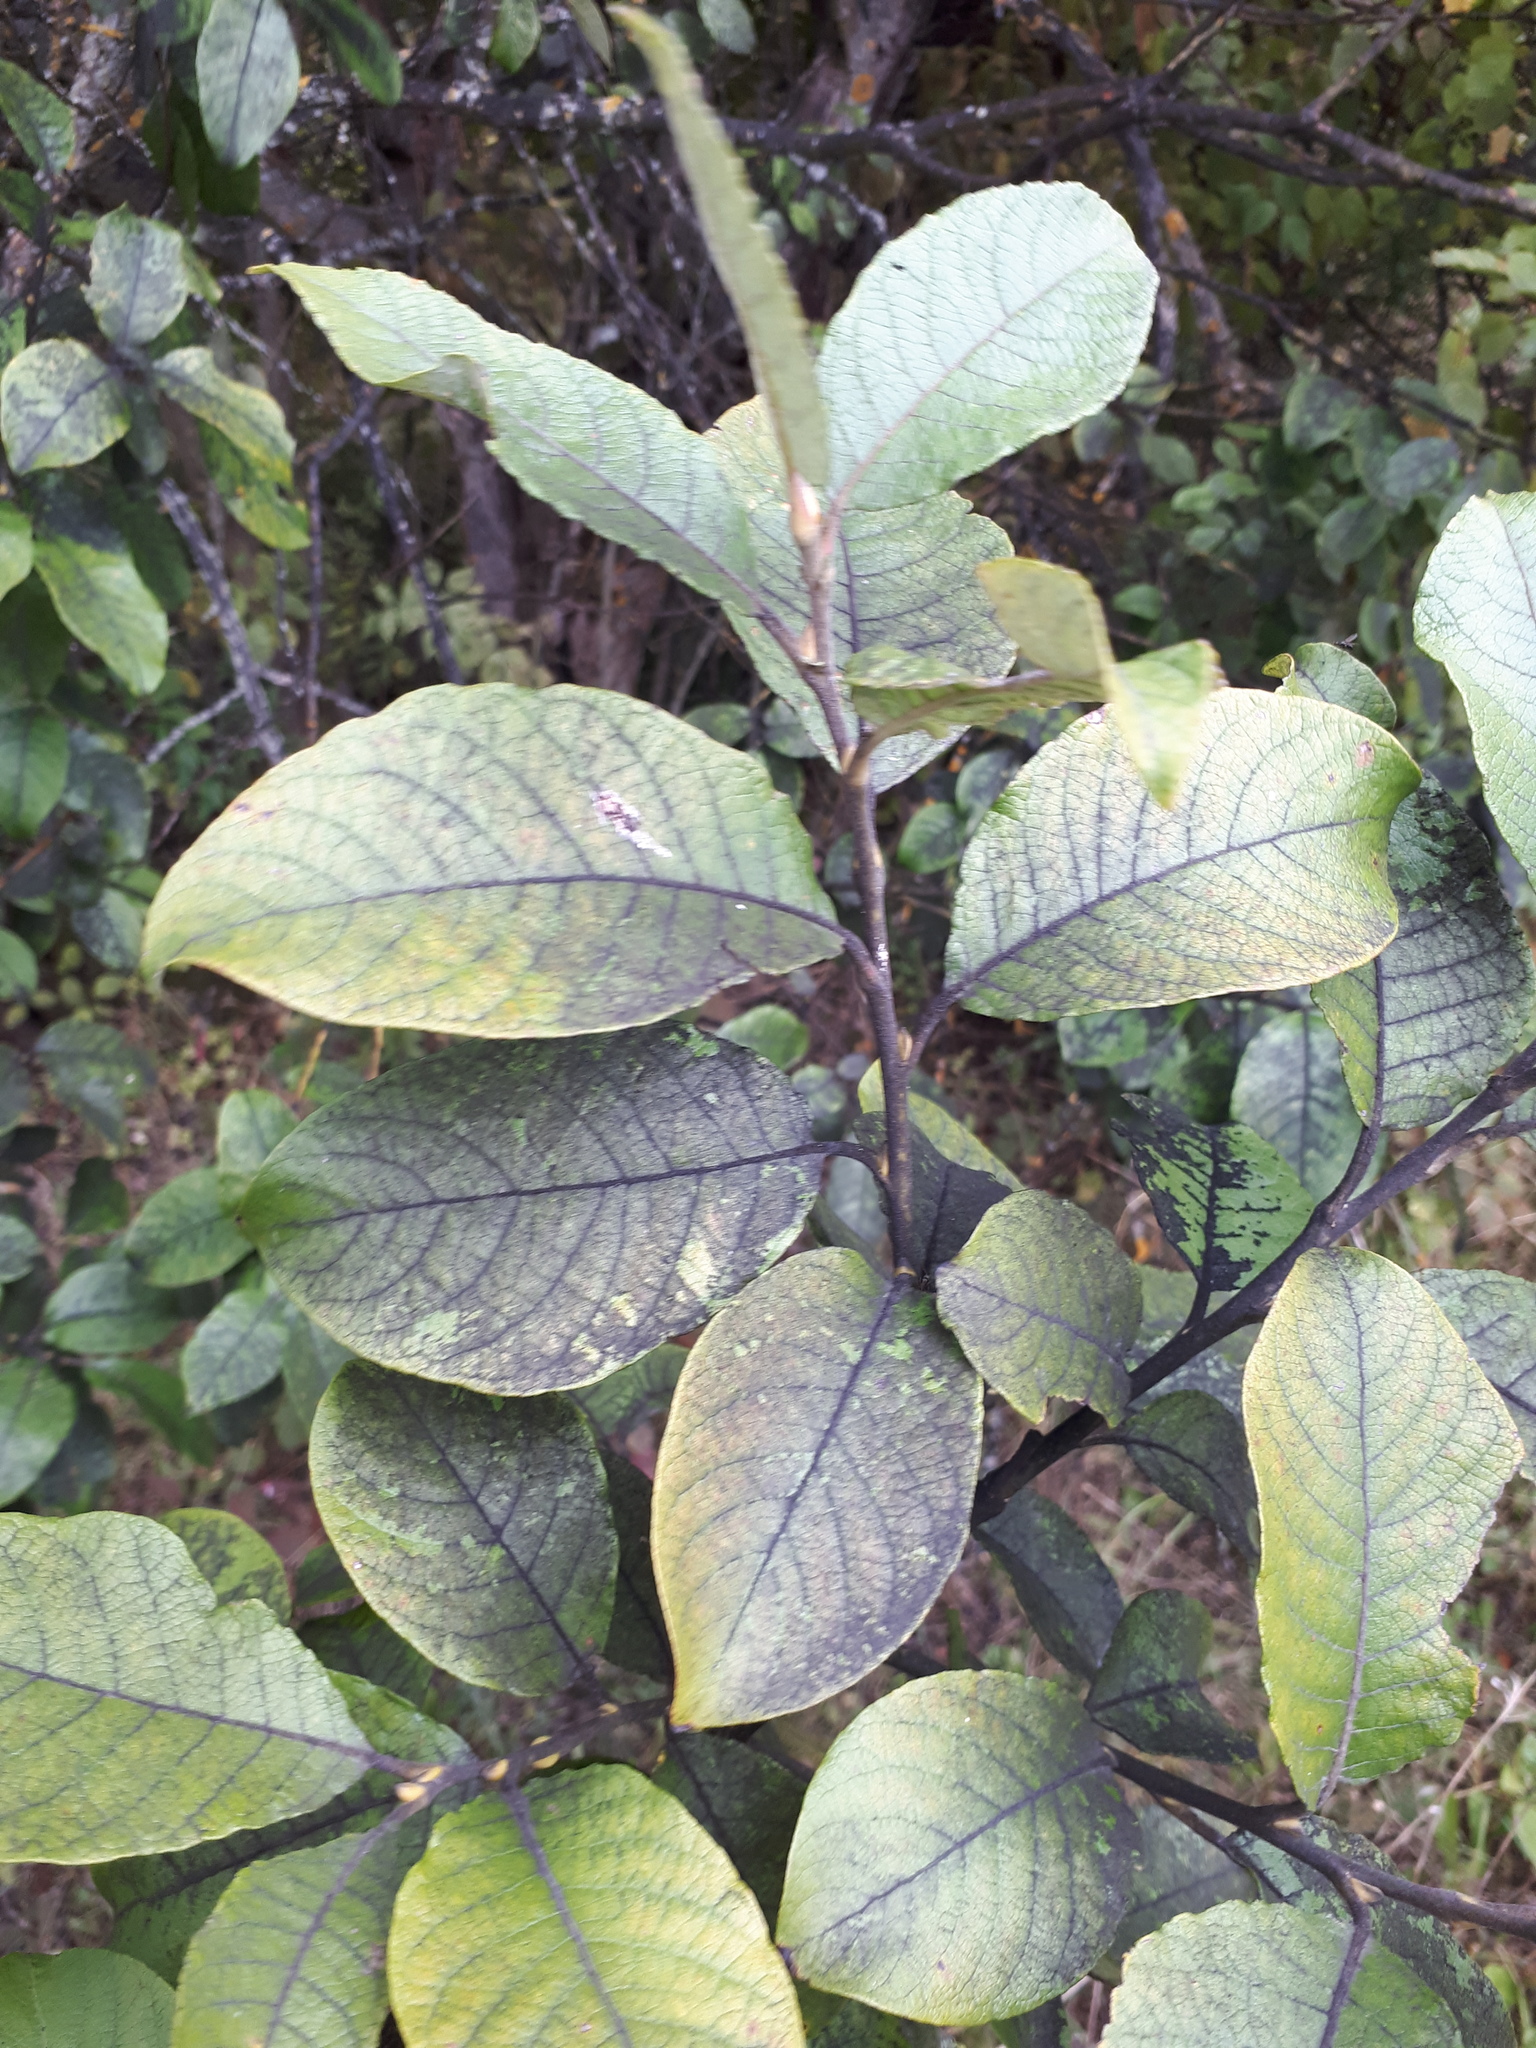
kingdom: Plantae
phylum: Tracheophyta
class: Magnoliopsida
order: Malpighiales
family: Salicaceae
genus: Salix
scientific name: Salix caprea
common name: Goat willow
